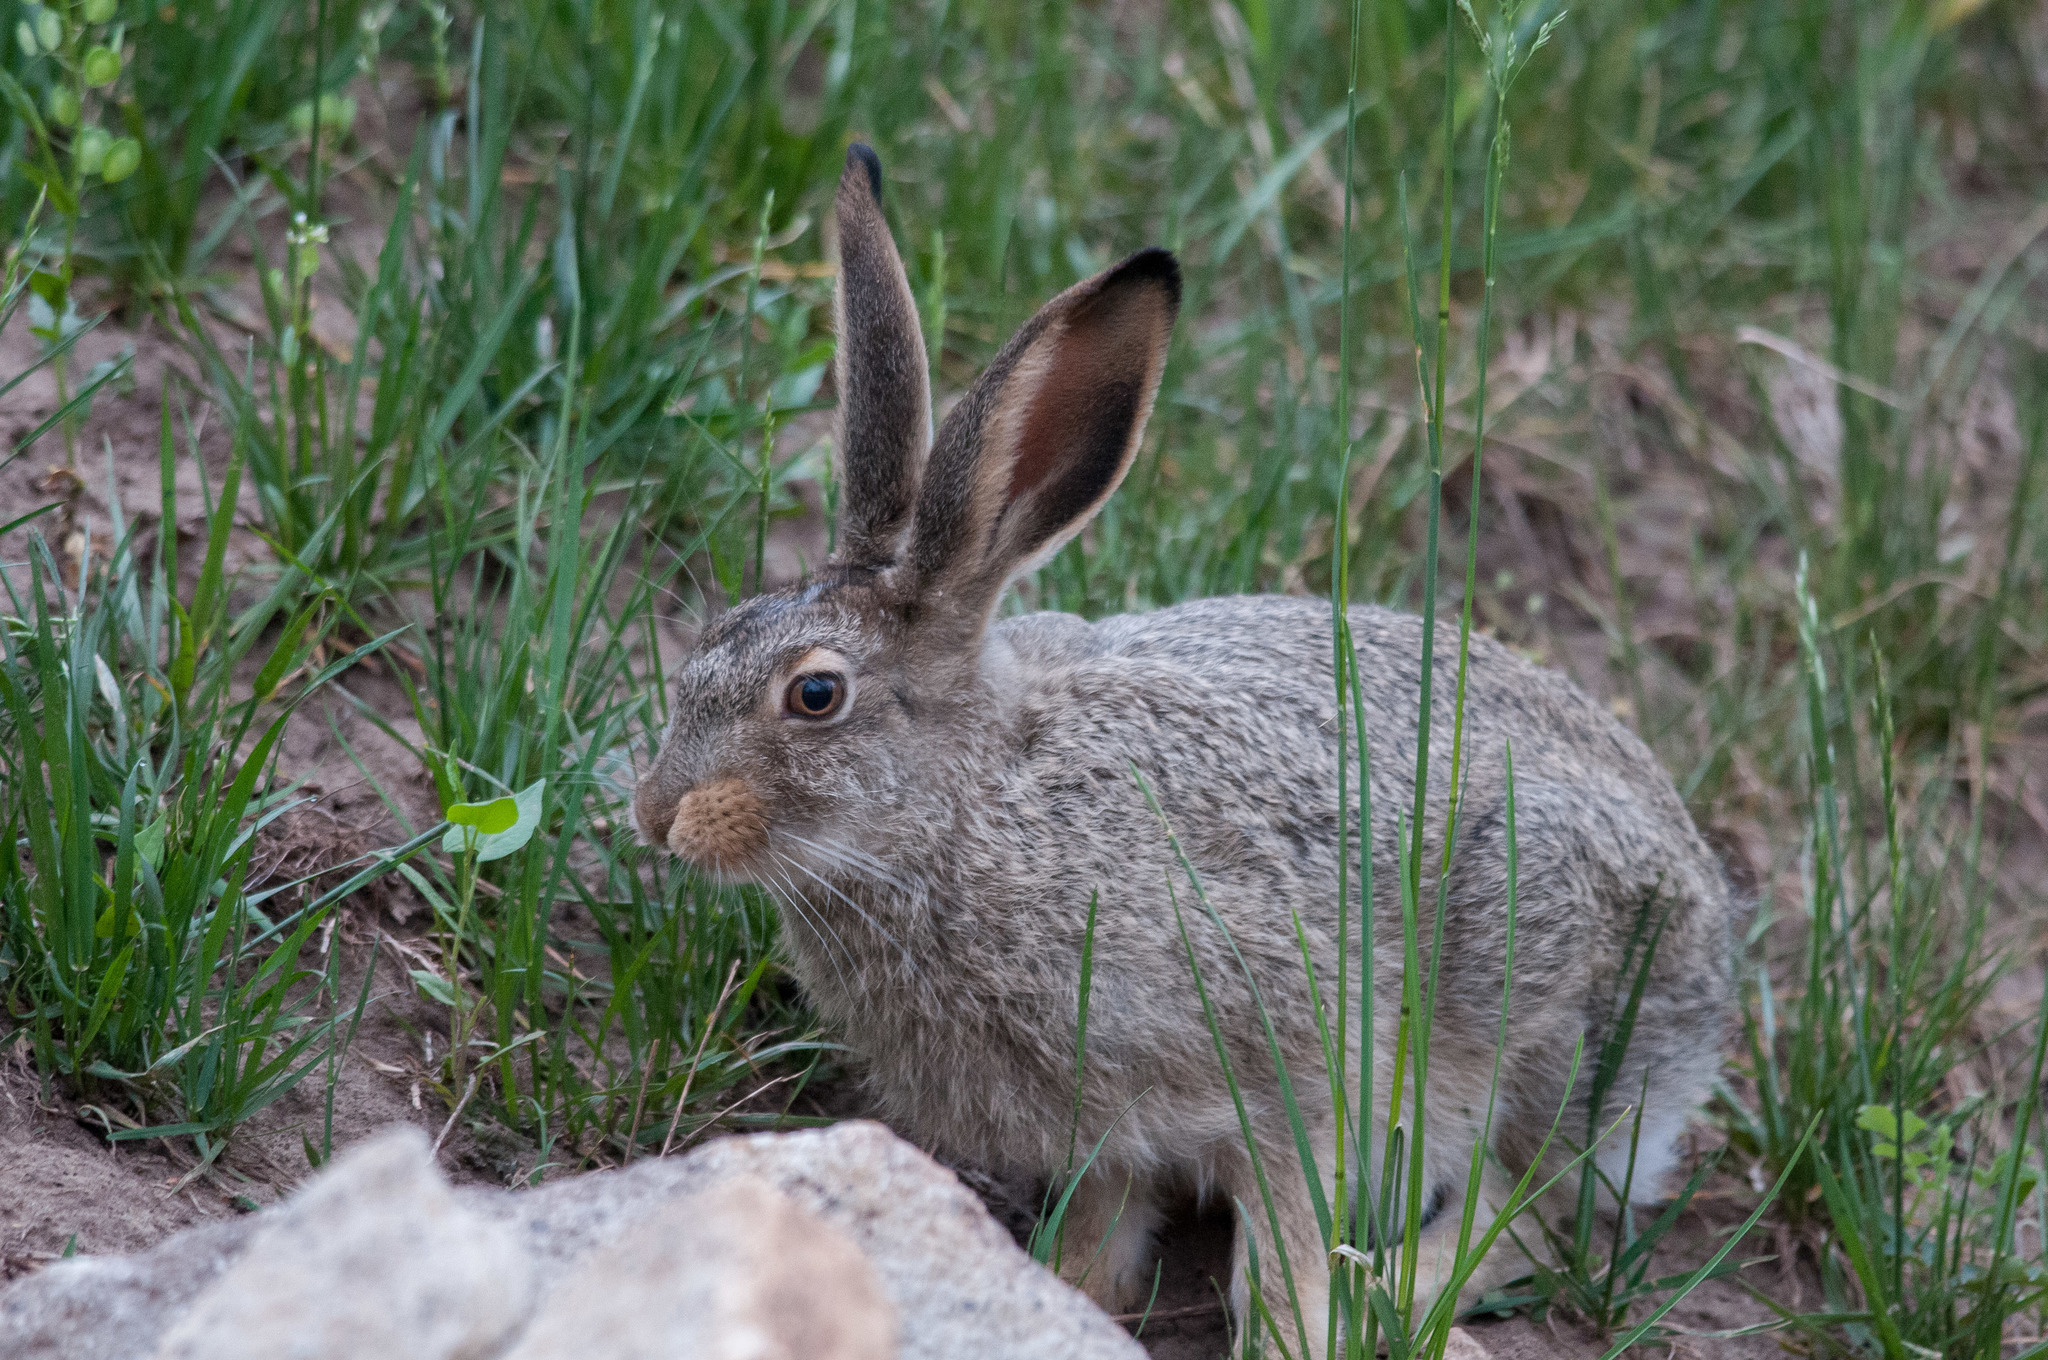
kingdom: Animalia
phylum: Chordata
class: Mammalia
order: Lagomorpha
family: Leporidae
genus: Lepus
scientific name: Lepus townsendii
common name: White-tailed jackrabbit
